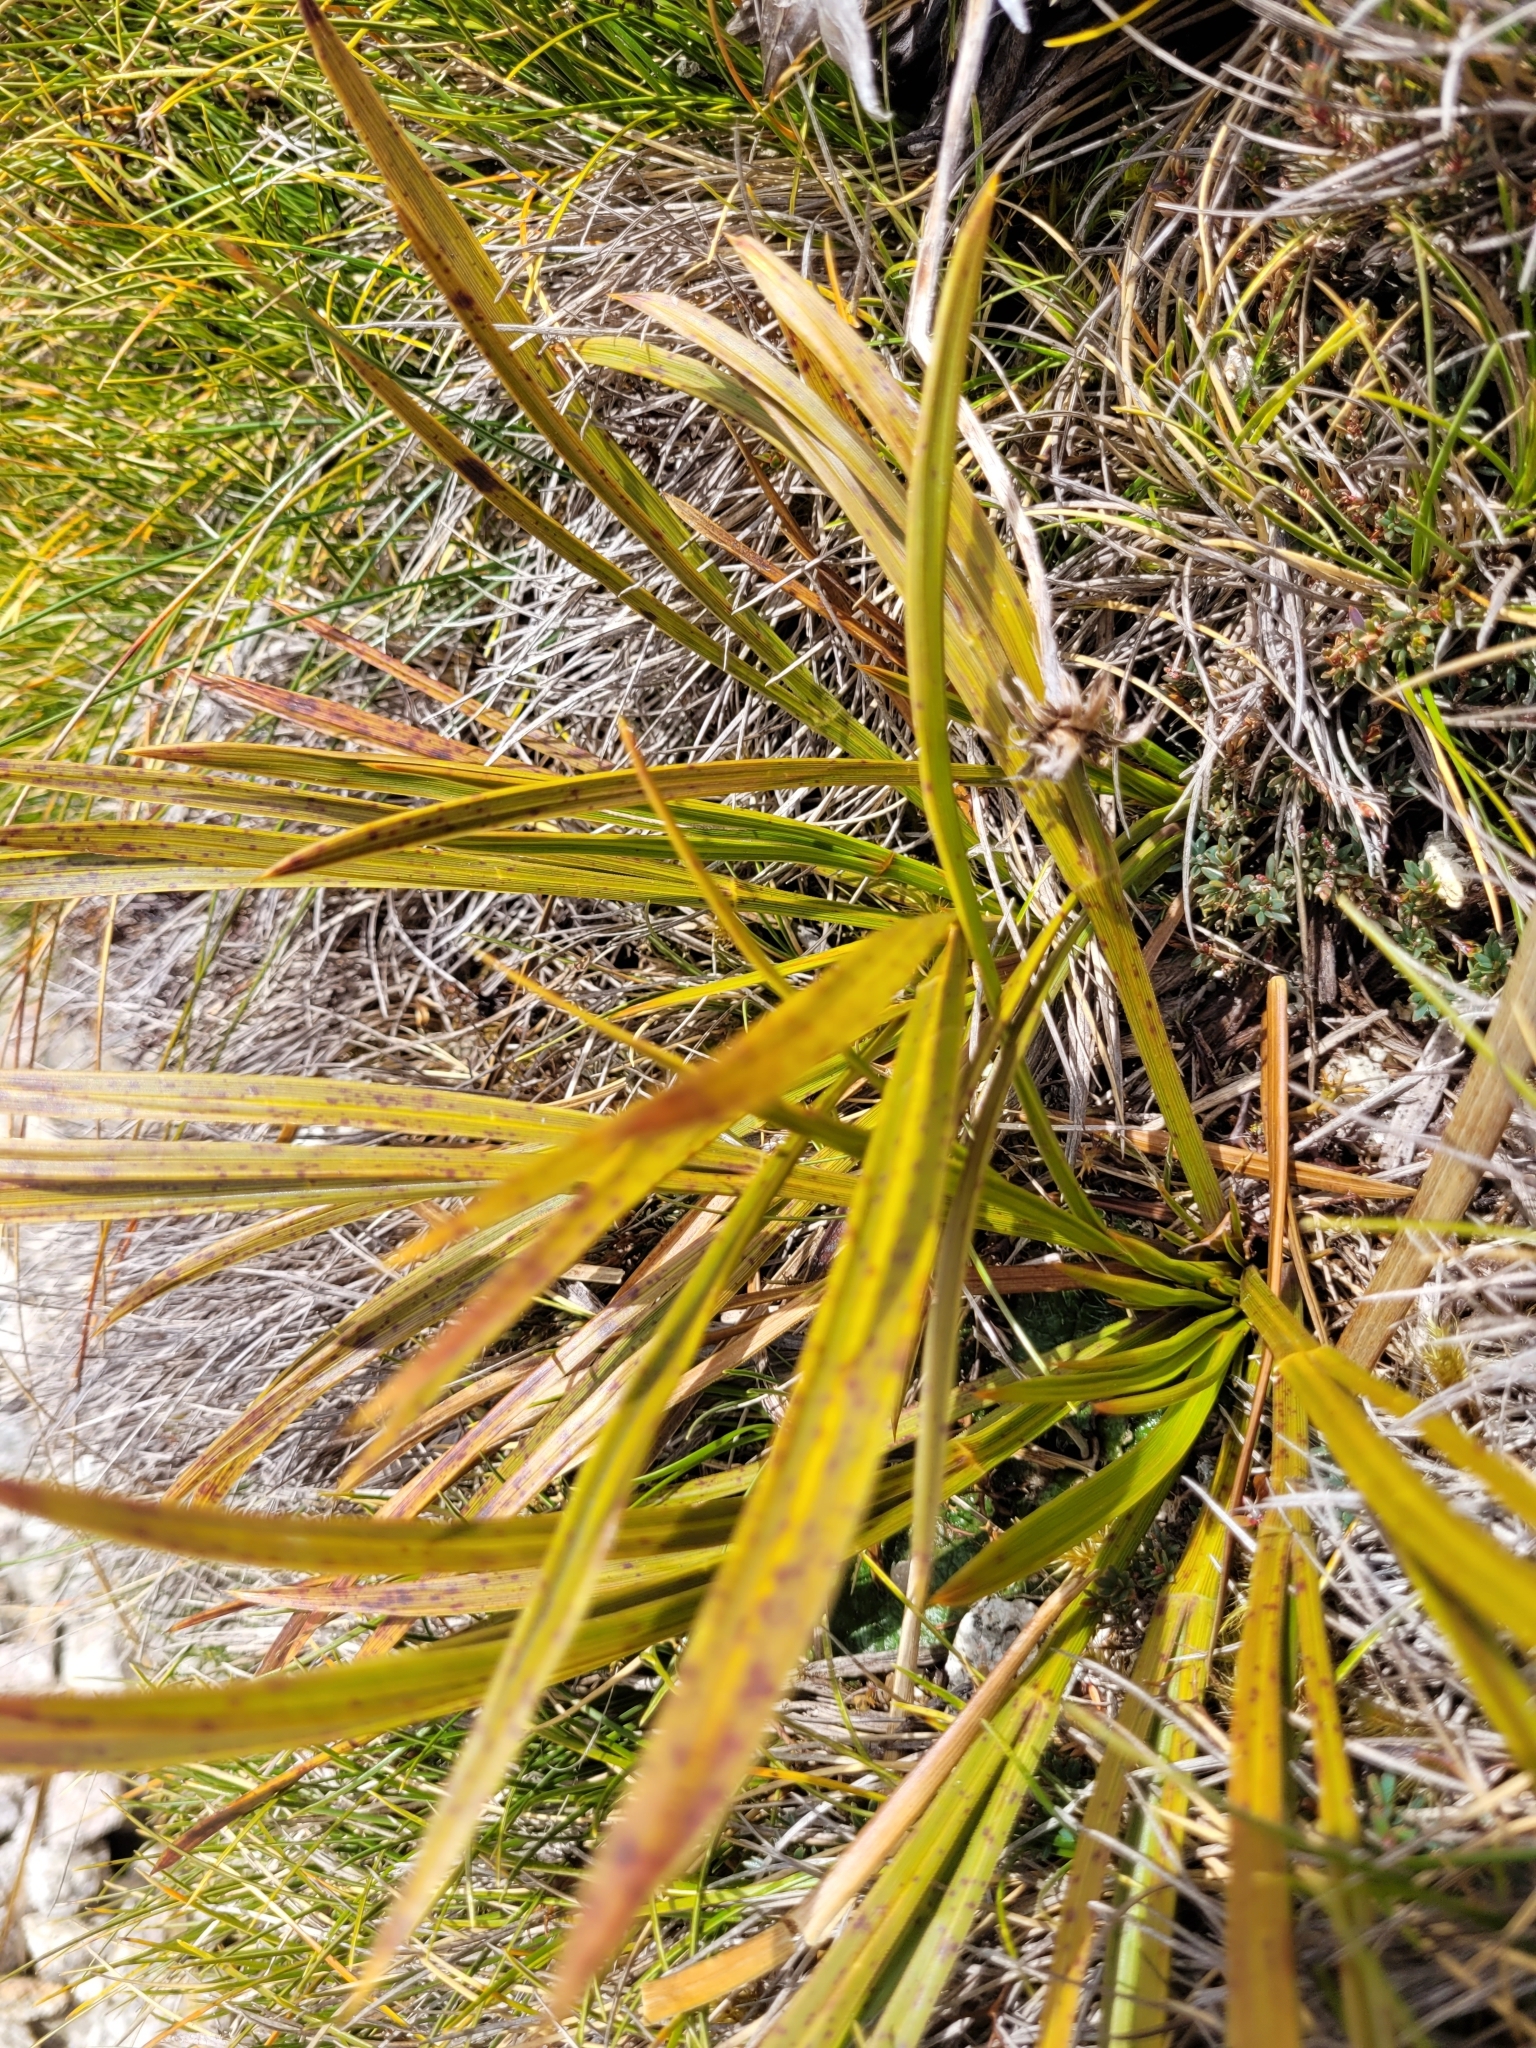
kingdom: Plantae
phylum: Tracheophyta
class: Magnoliopsida
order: Apiales
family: Apiaceae
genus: Aciphylla
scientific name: Aciphylla trifoliolata
